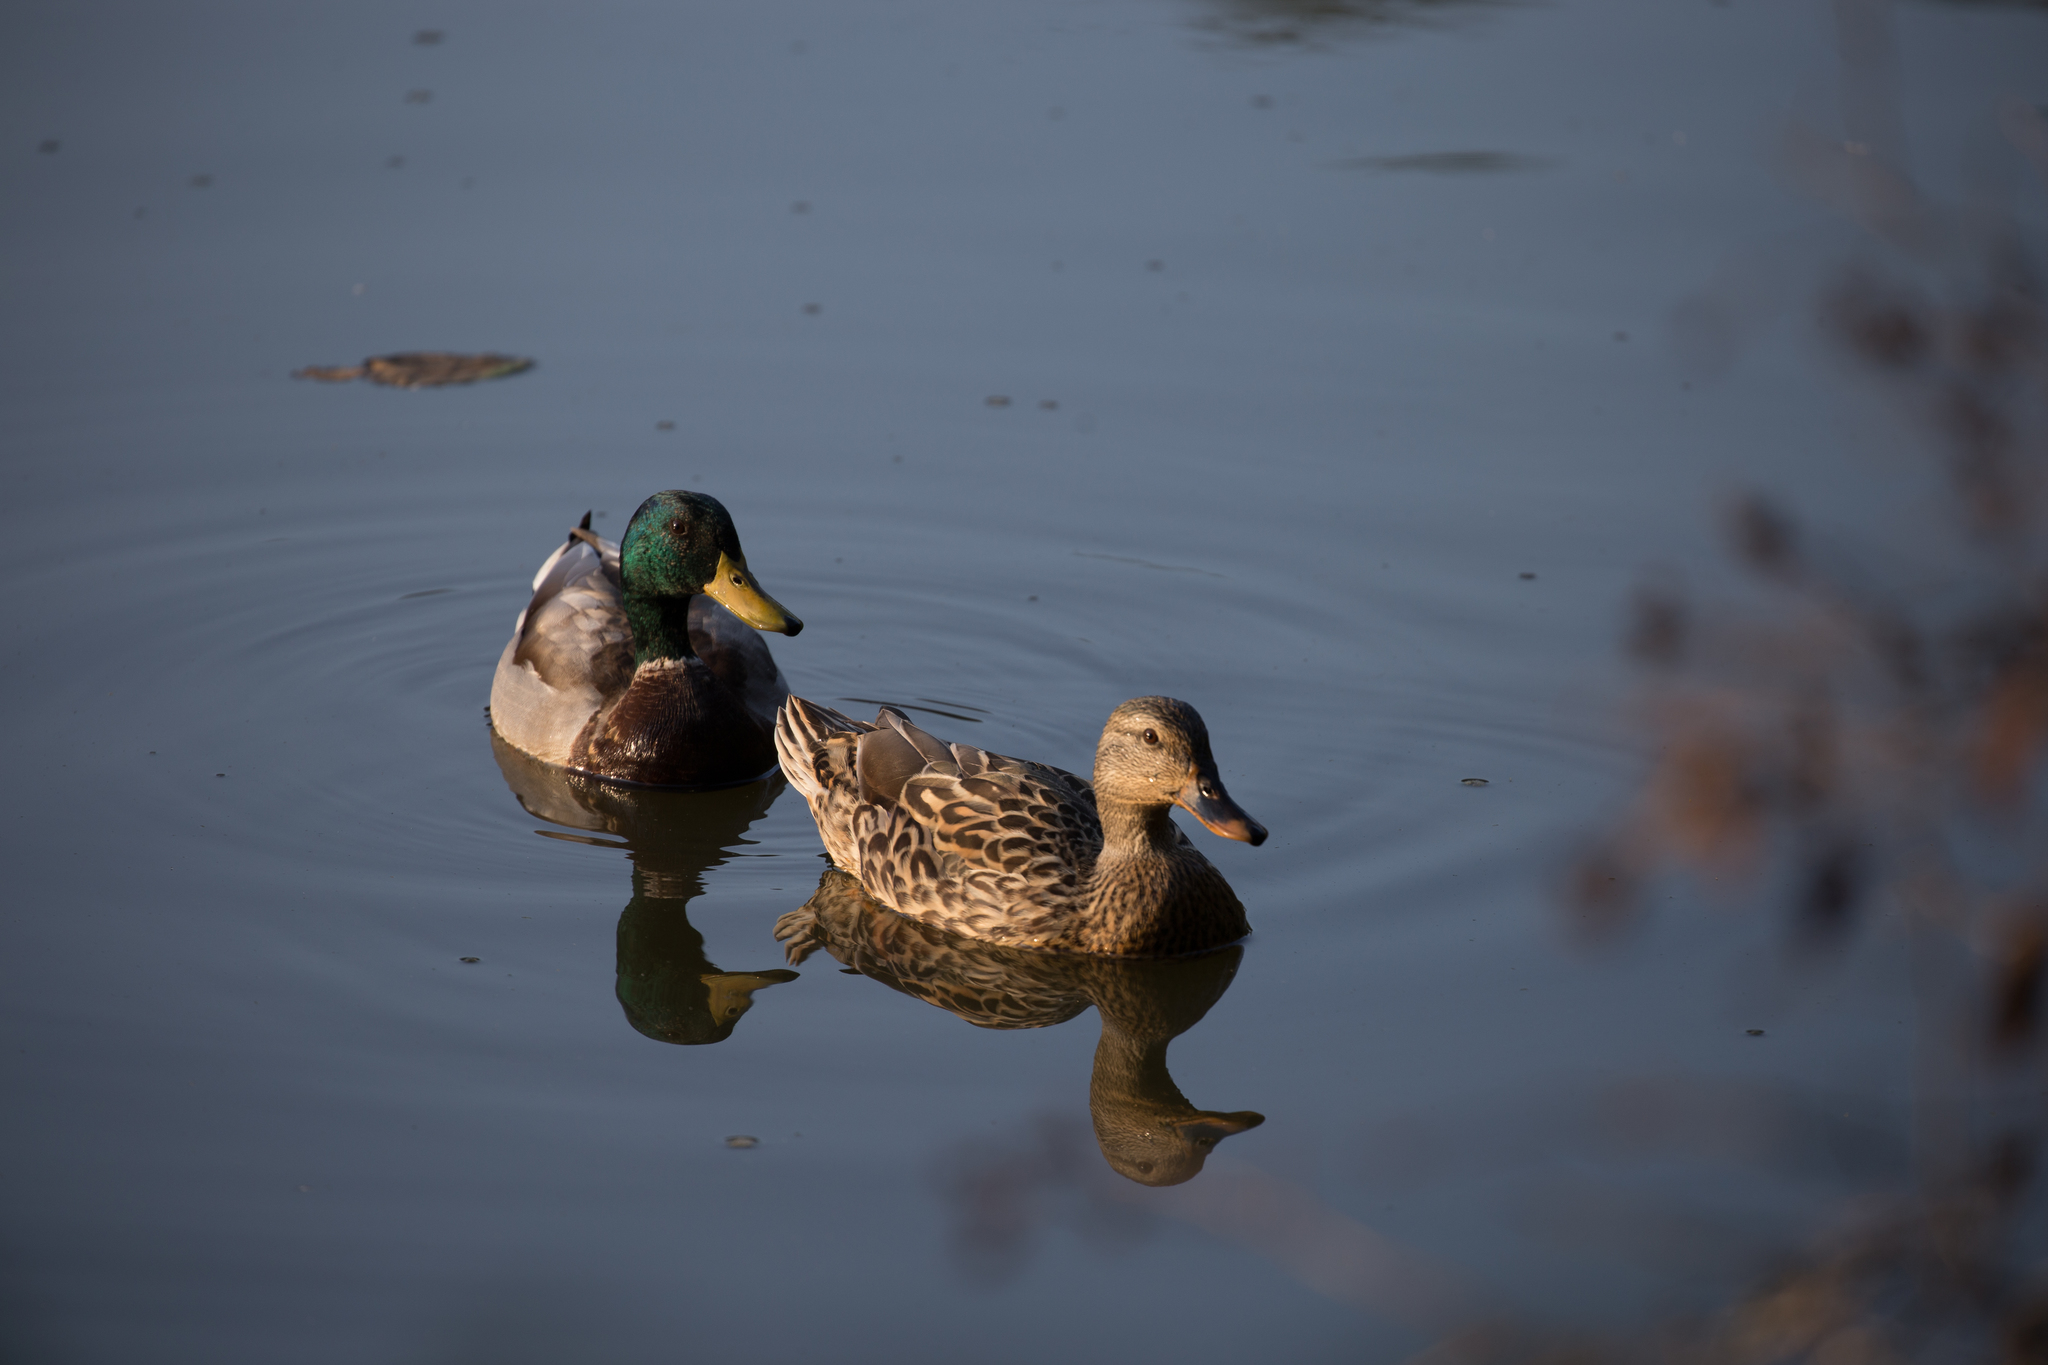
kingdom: Animalia
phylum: Chordata
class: Aves
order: Anseriformes
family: Anatidae
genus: Anas
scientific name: Anas platyrhynchos
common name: Mallard
